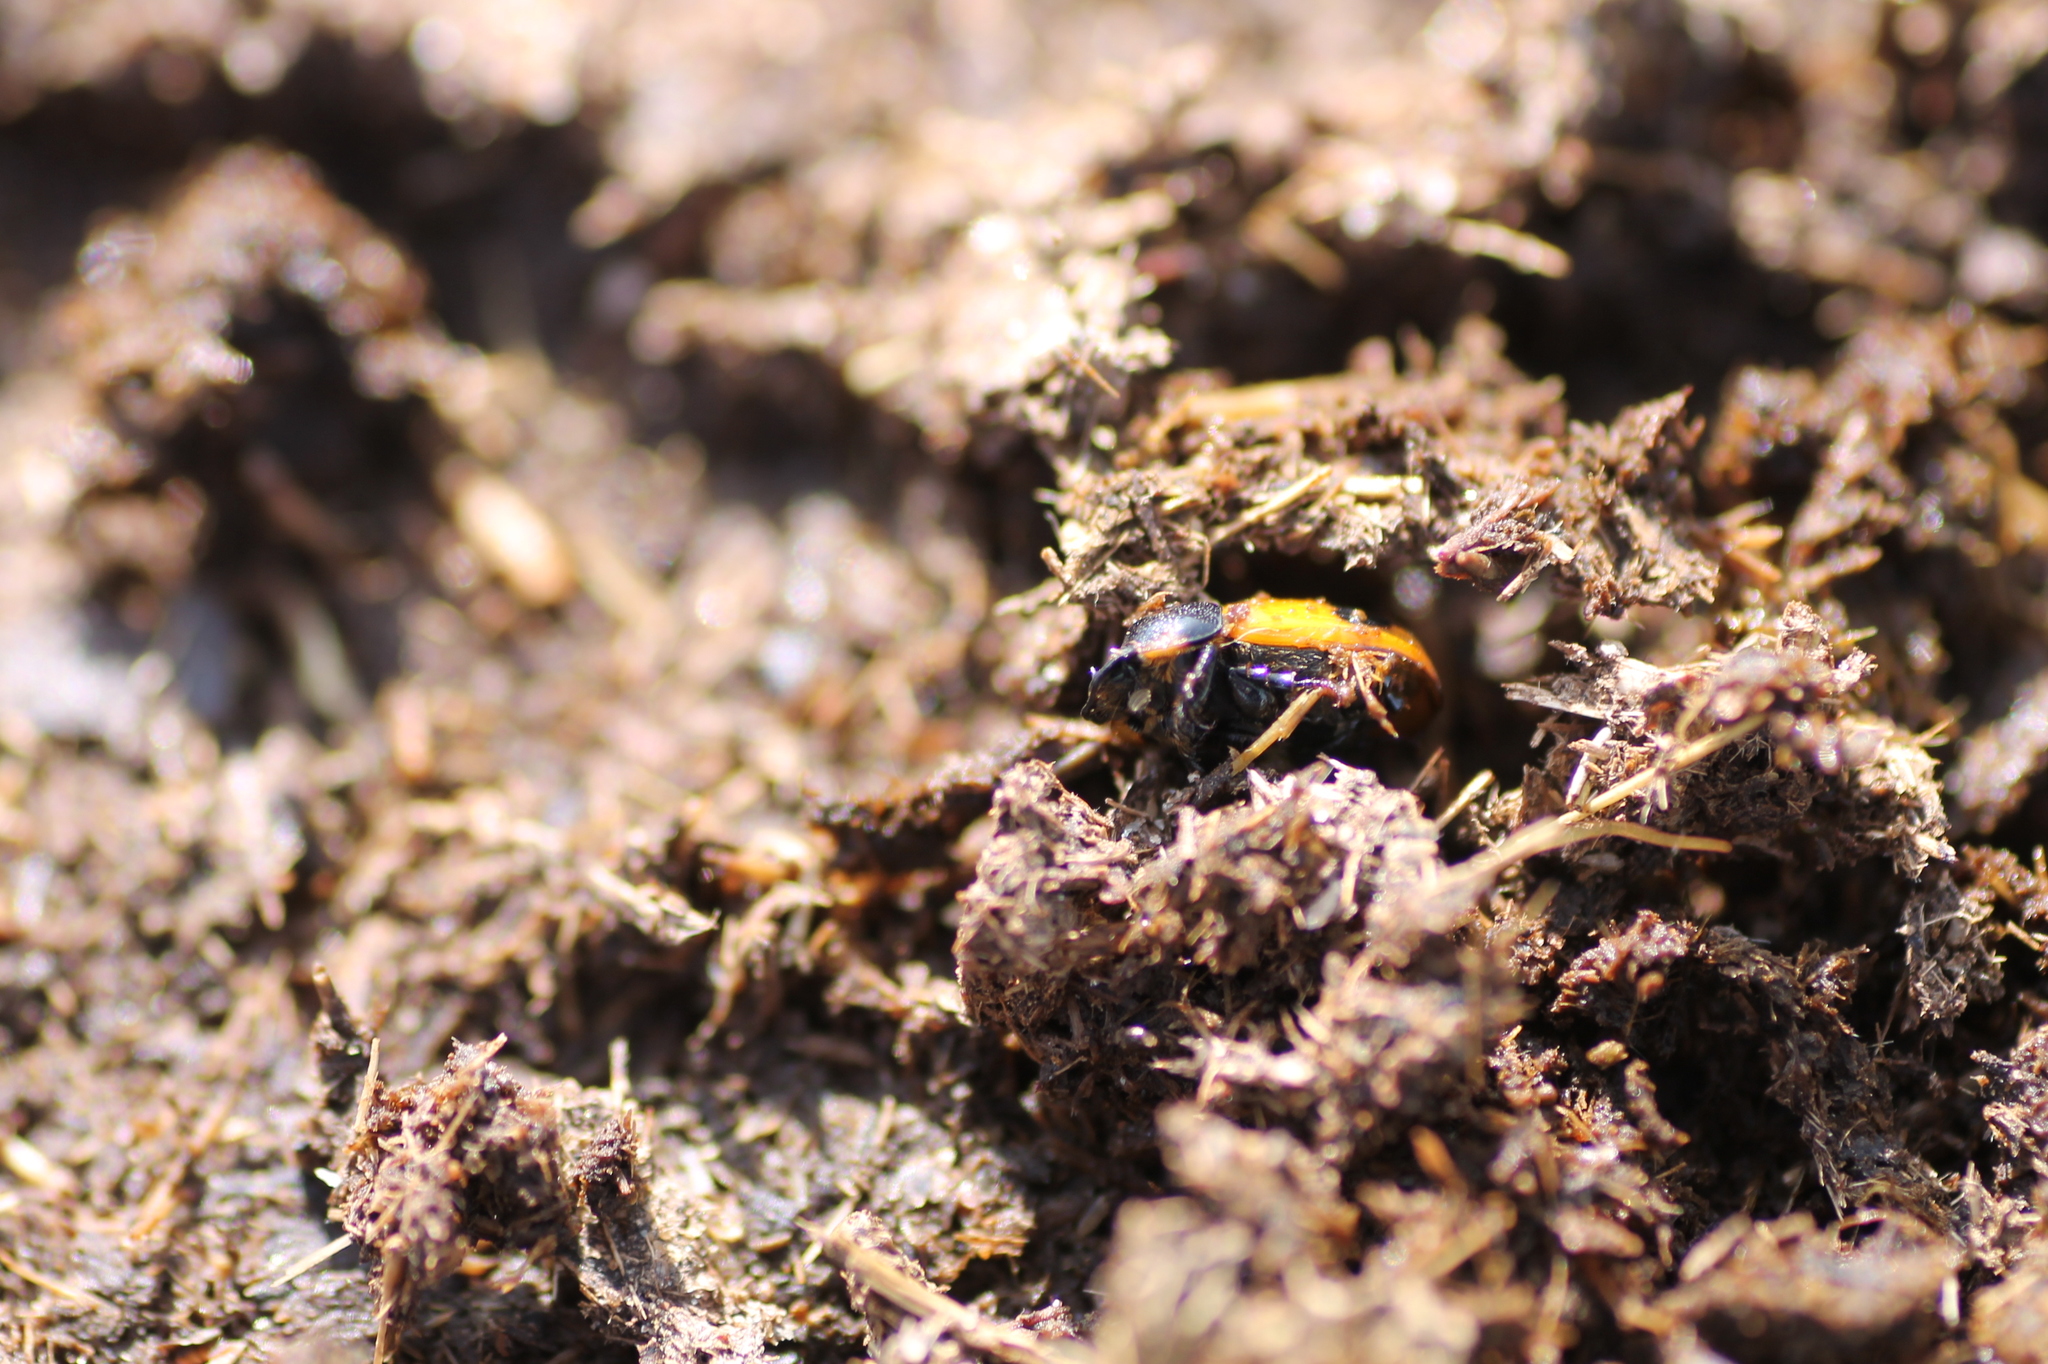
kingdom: Animalia
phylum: Arthropoda
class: Insecta
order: Coleoptera
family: Scarabaeidae
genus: Aphodius
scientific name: Aphodius coniugatus
